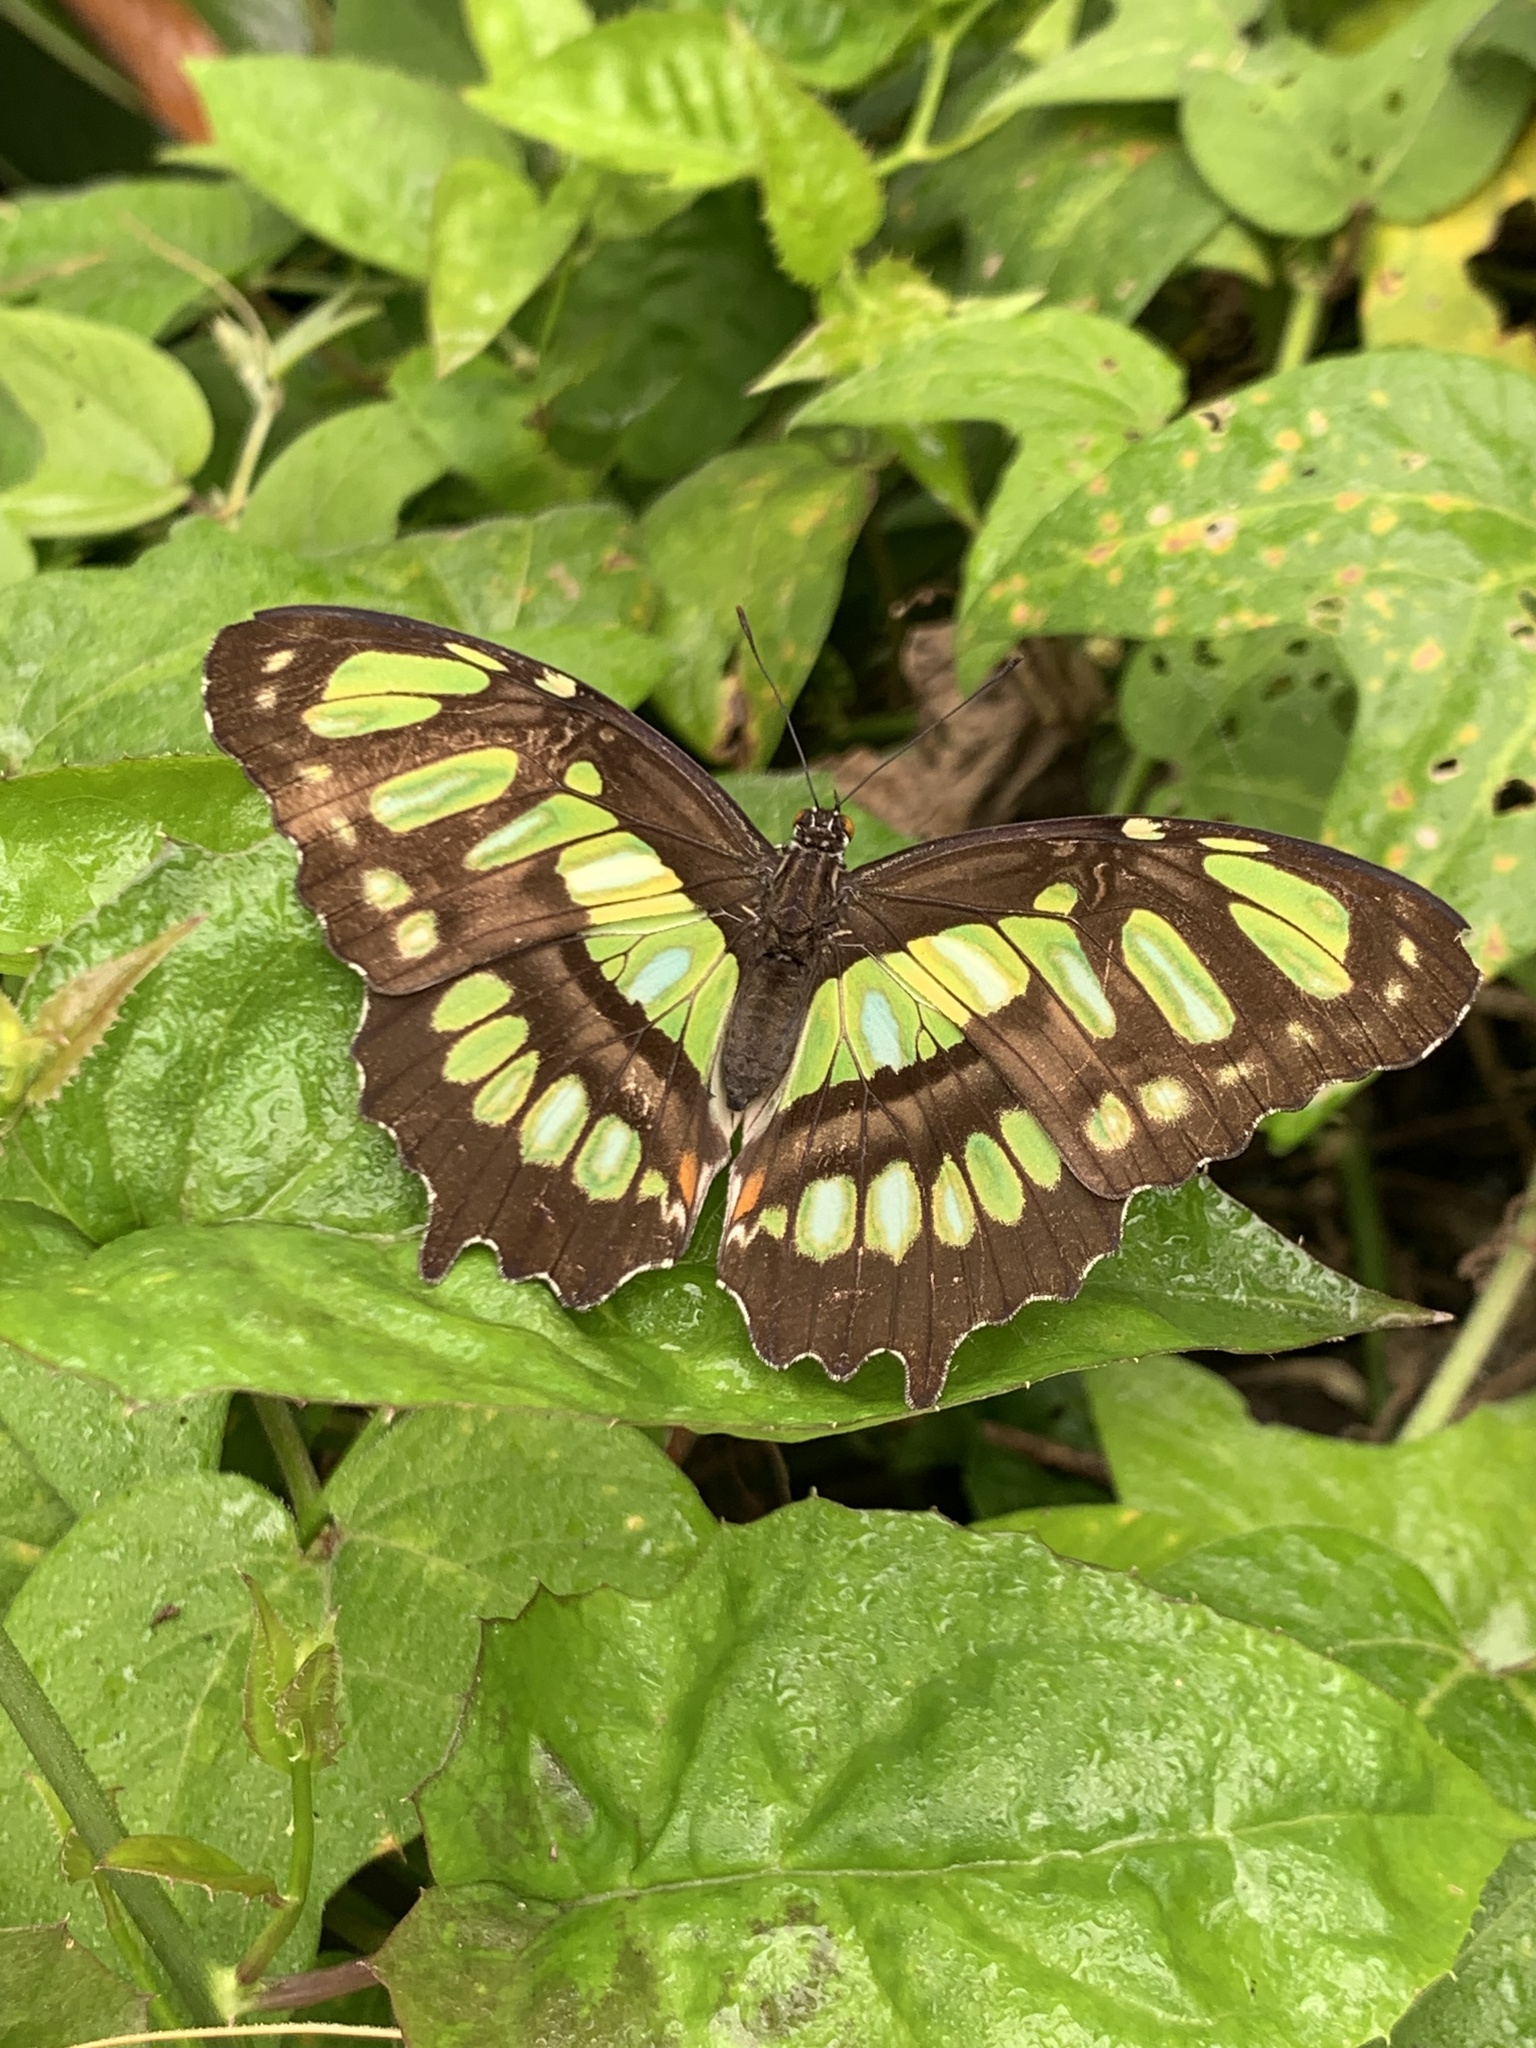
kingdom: Animalia
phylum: Arthropoda
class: Insecta
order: Lepidoptera
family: Nymphalidae
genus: Siproeta
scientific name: Siproeta stelenes
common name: Malachite
